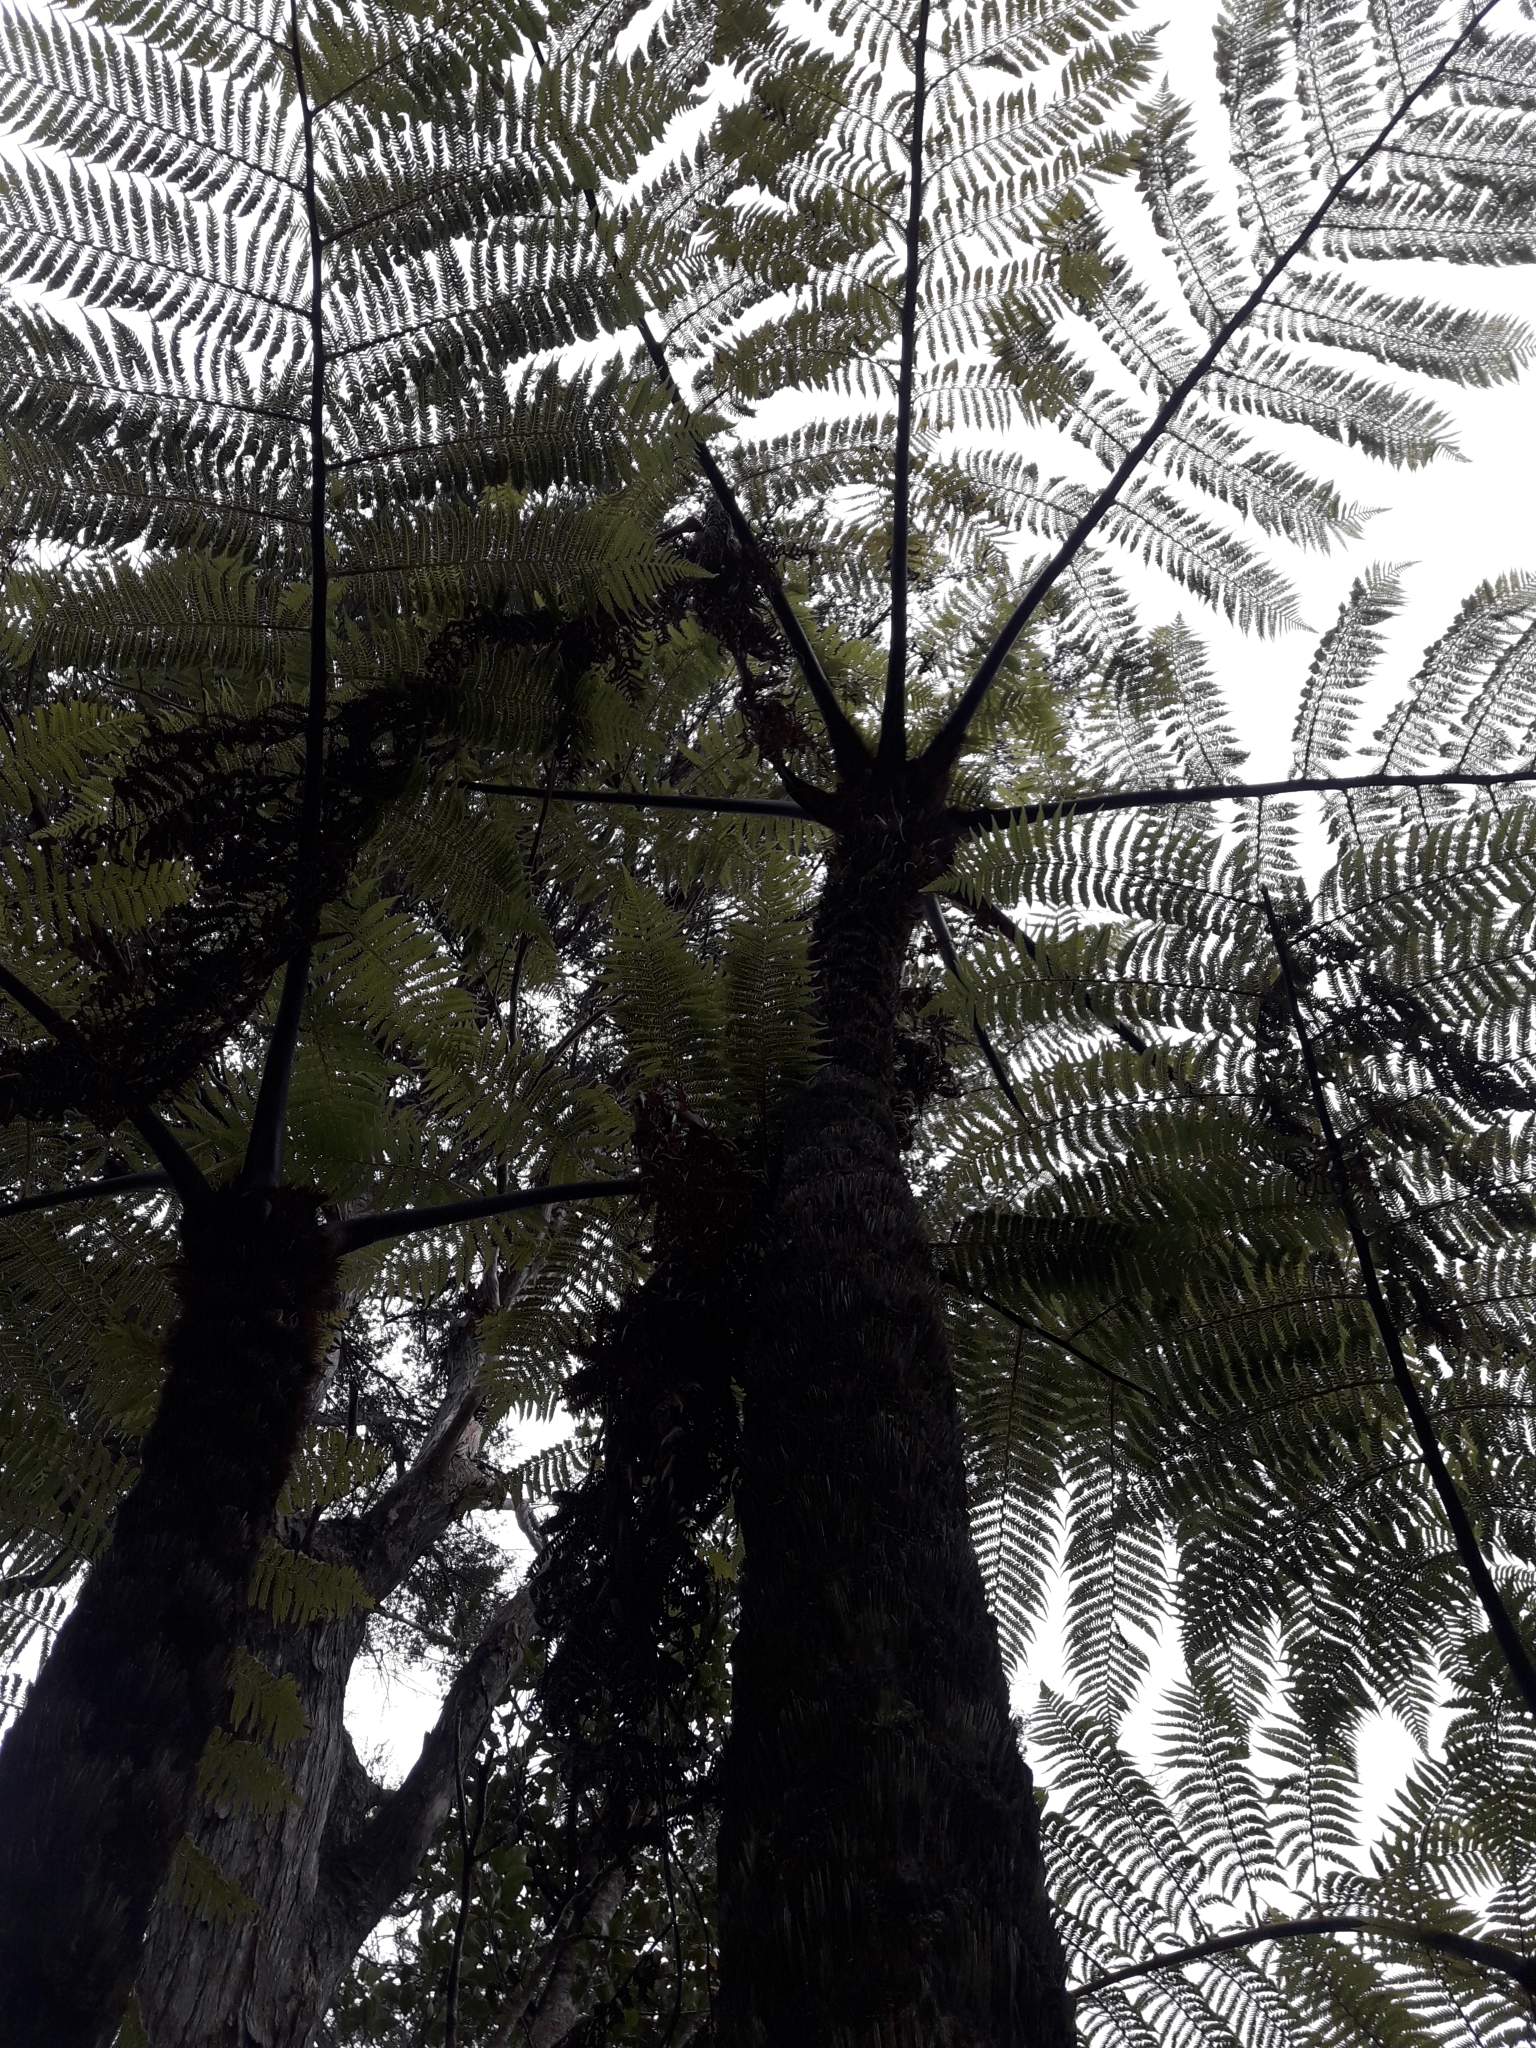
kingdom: Plantae
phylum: Tracheophyta
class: Polypodiopsida
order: Cyatheales
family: Cyatheaceae
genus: Sphaeropteris
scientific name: Sphaeropteris medullaris
